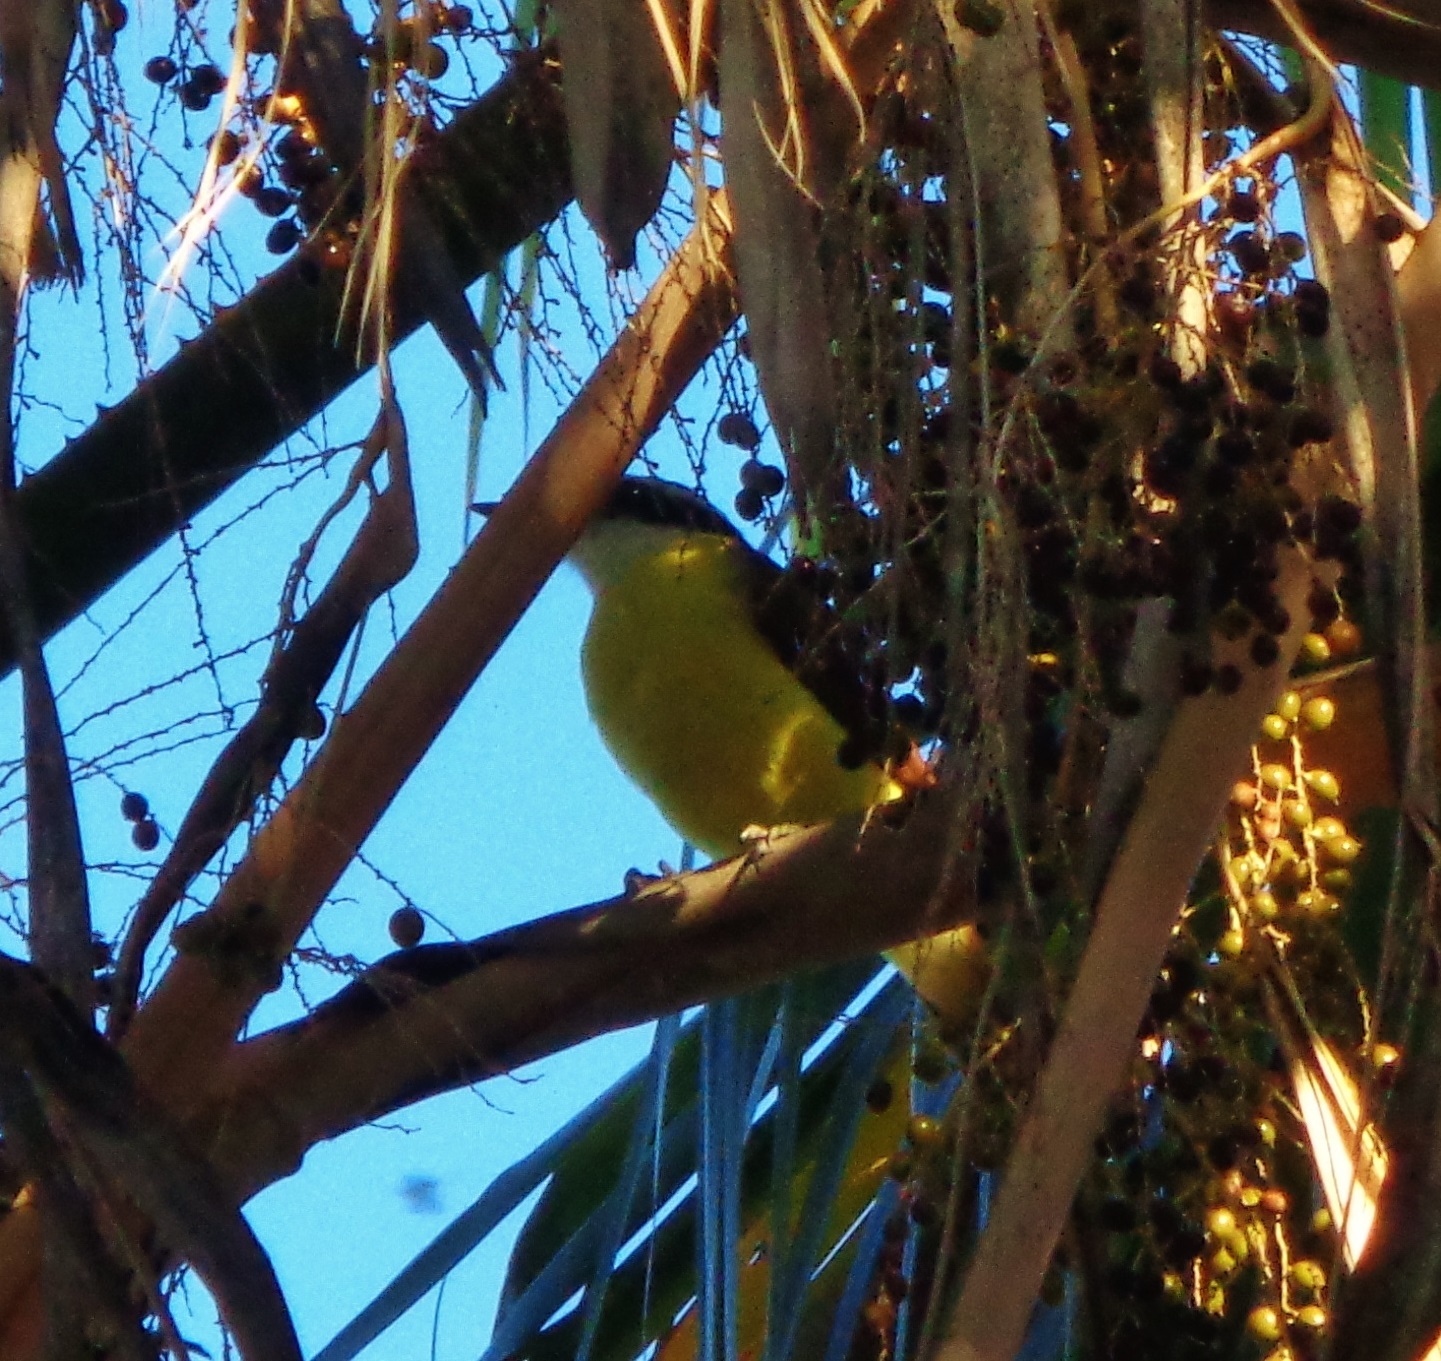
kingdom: Animalia
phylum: Chordata
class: Aves
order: Passeriformes
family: Tyrannidae
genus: Pitangus
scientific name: Pitangus sulphuratus
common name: Great kiskadee
